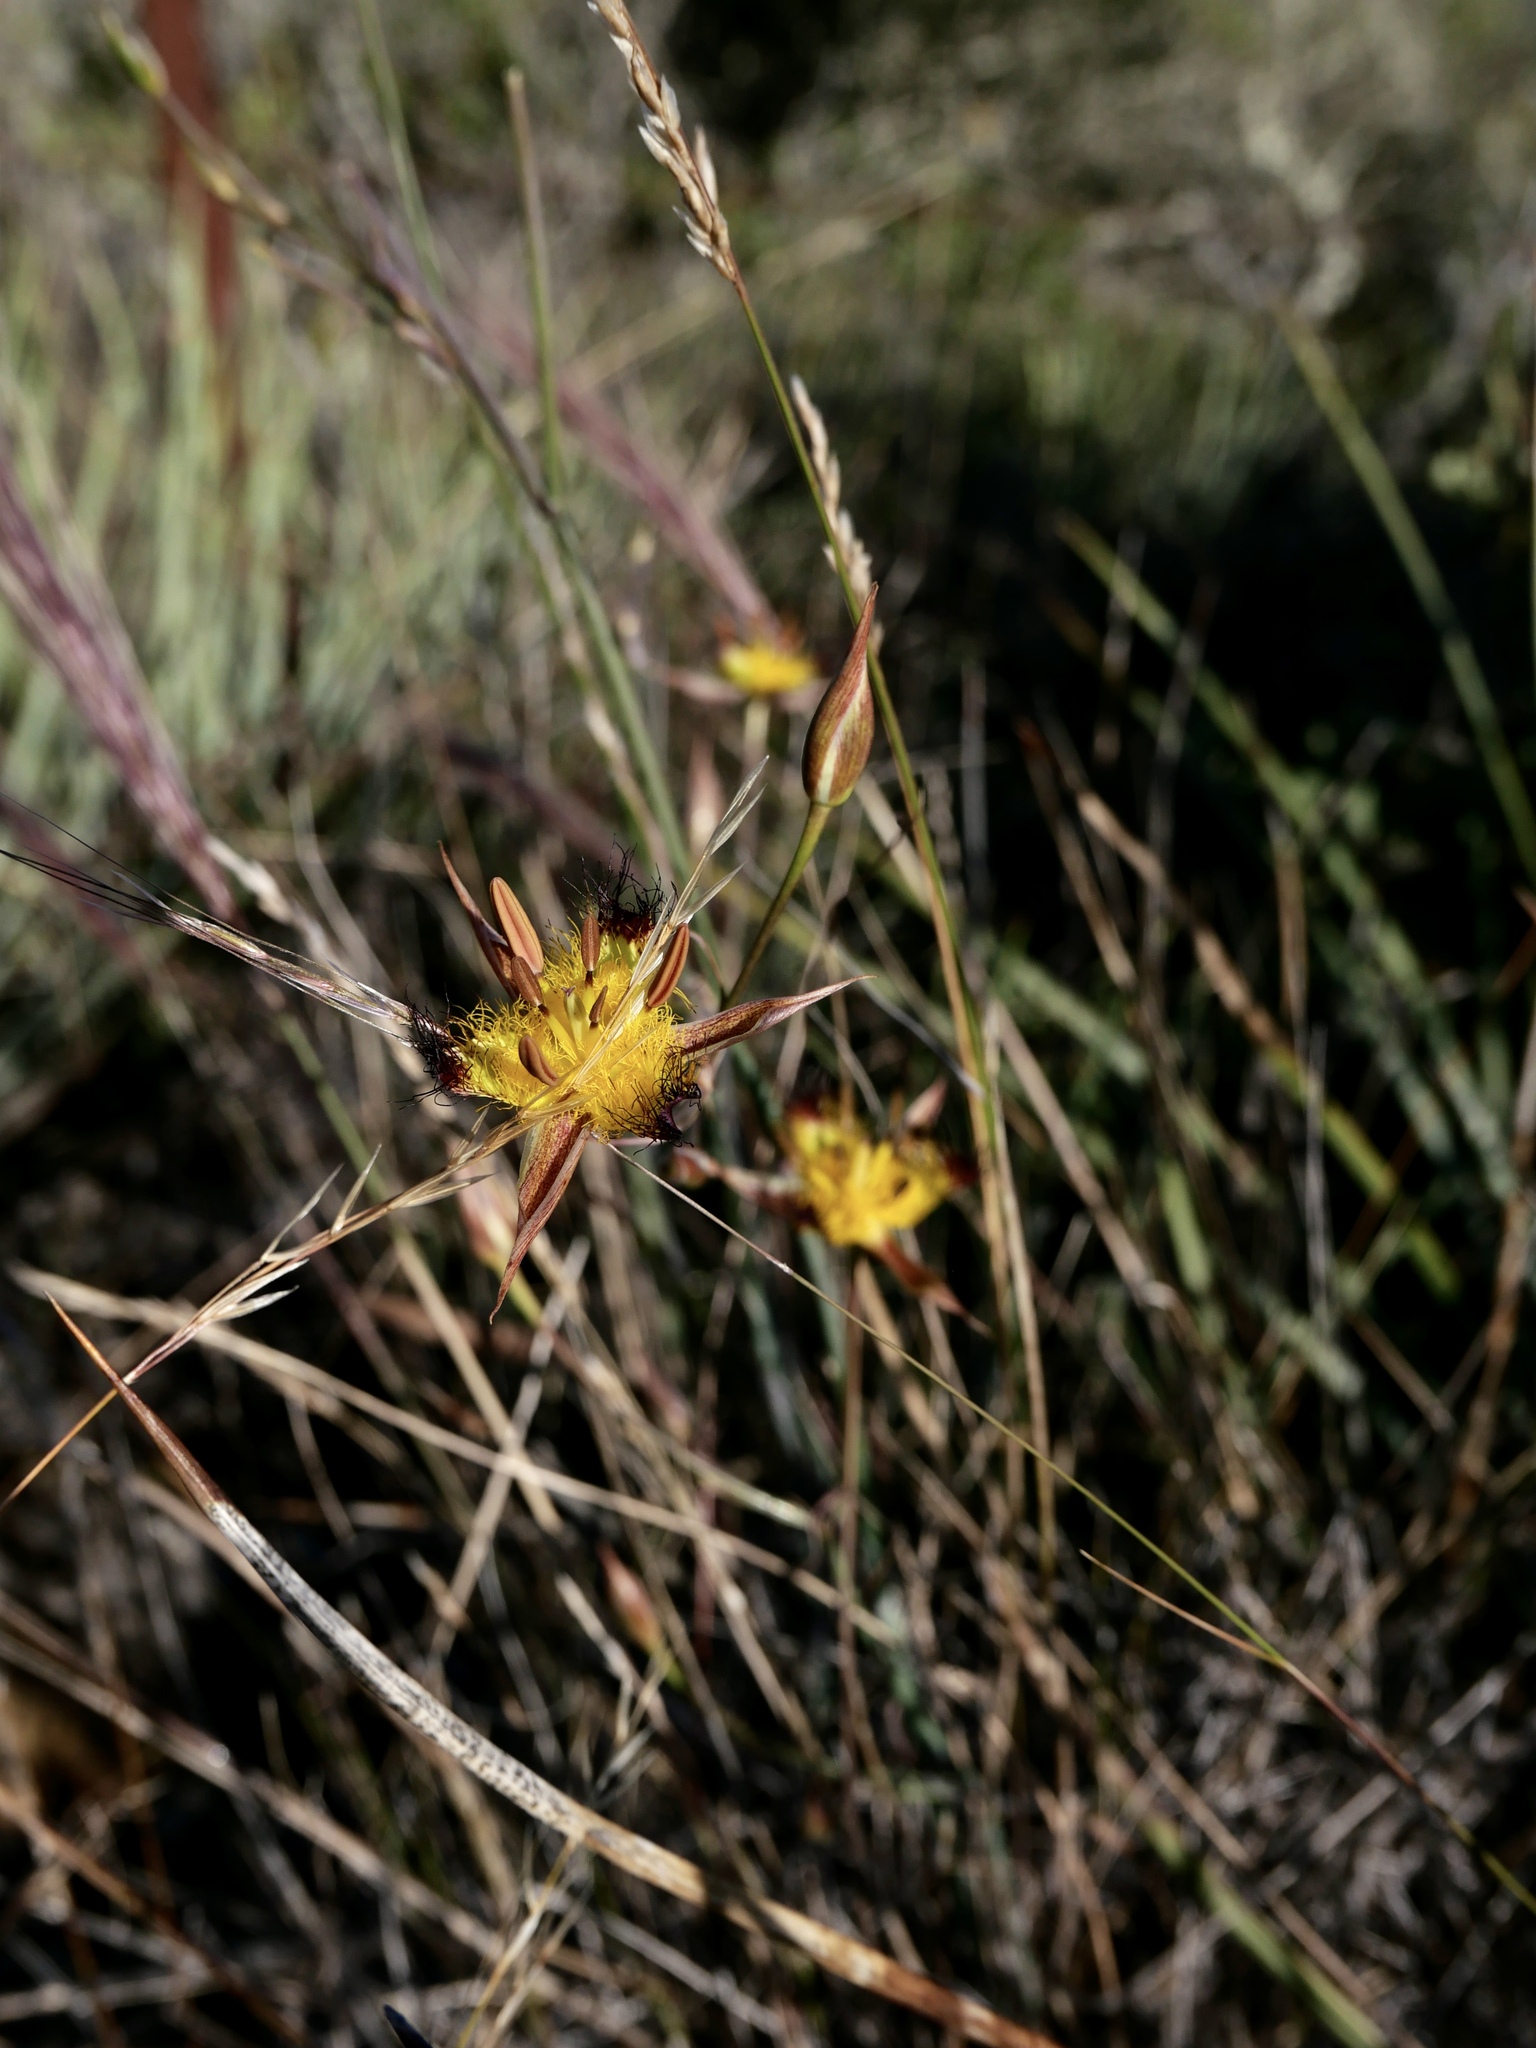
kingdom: Plantae
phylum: Tracheophyta
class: Liliopsida
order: Liliales
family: Liliaceae
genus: Calochortus
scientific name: Calochortus obispoensis
